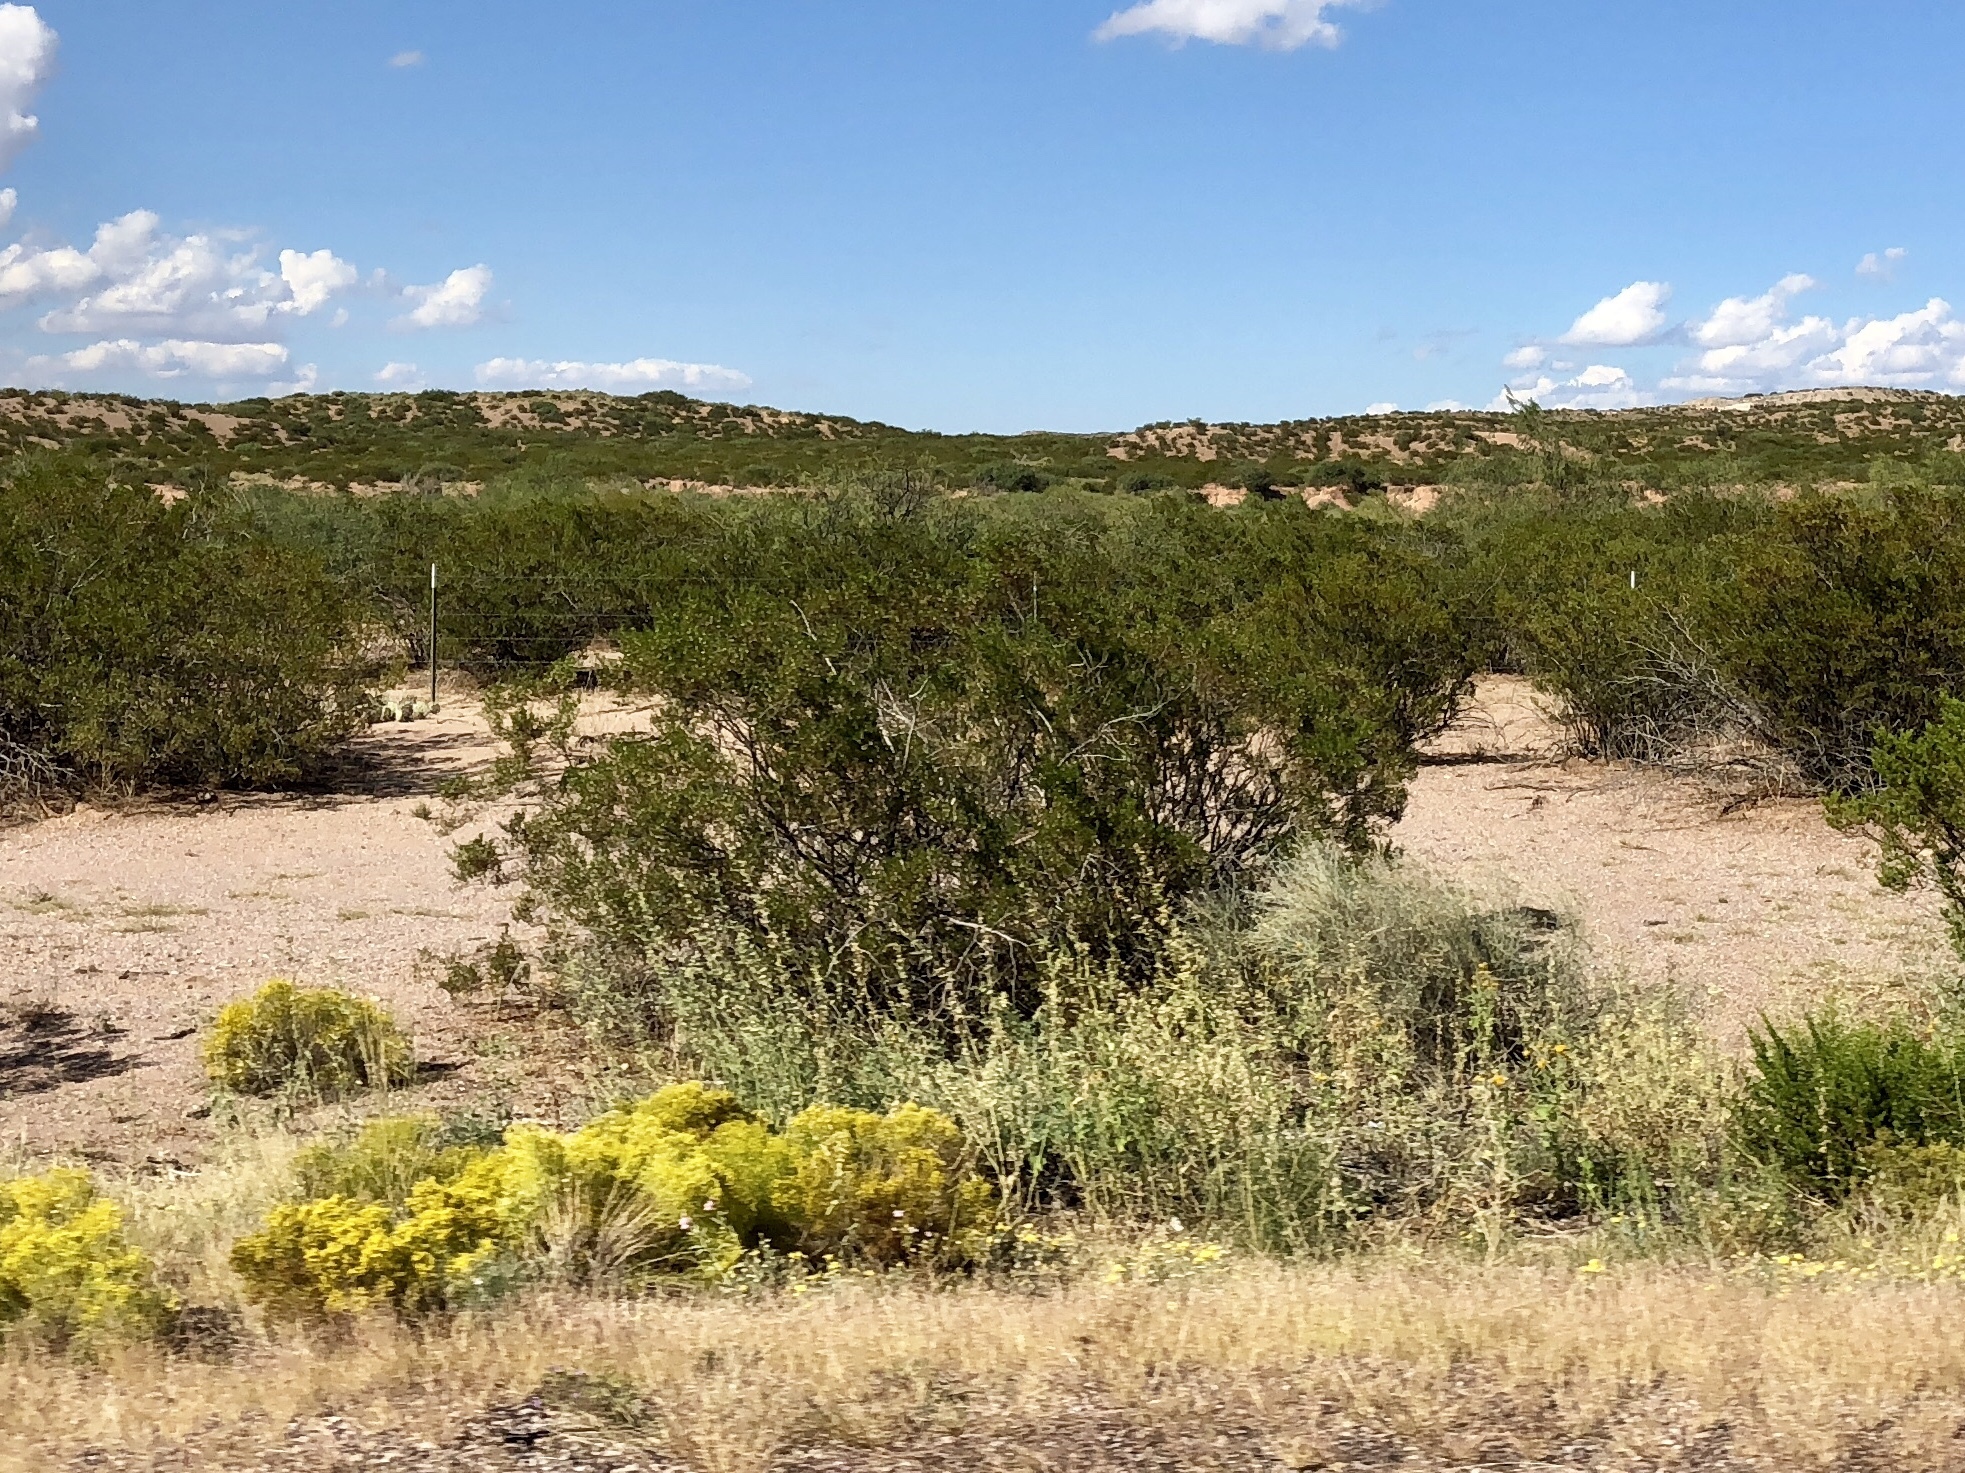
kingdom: Plantae
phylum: Tracheophyta
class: Magnoliopsida
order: Zygophyllales
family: Zygophyllaceae
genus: Larrea
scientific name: Larrea tridentata
